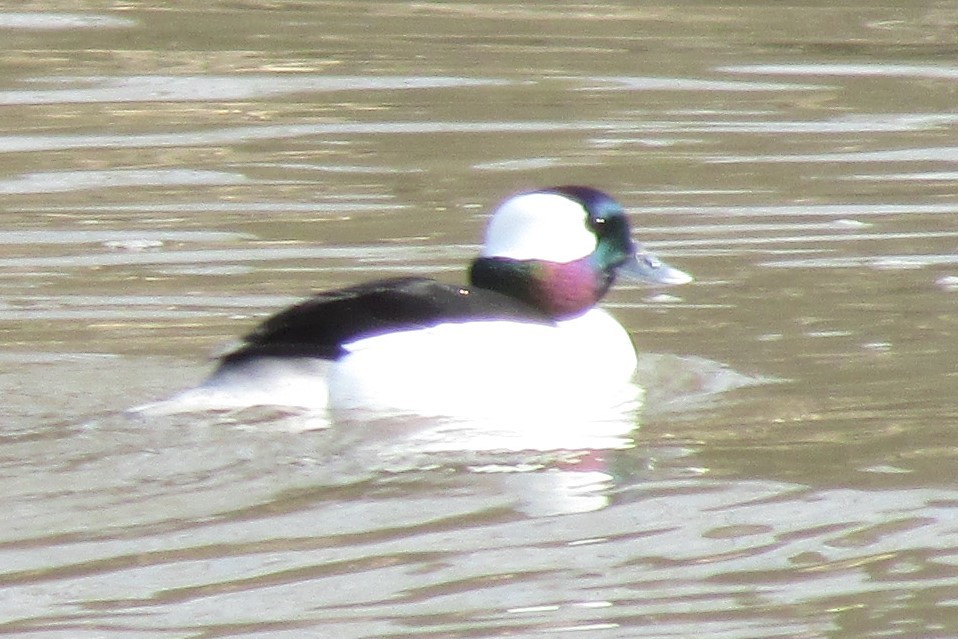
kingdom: Animalia
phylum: Chordata
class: Aves
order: Anseriformes
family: Anatidae
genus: Bucephala
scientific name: Bucephala albeola
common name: Bufflehead
